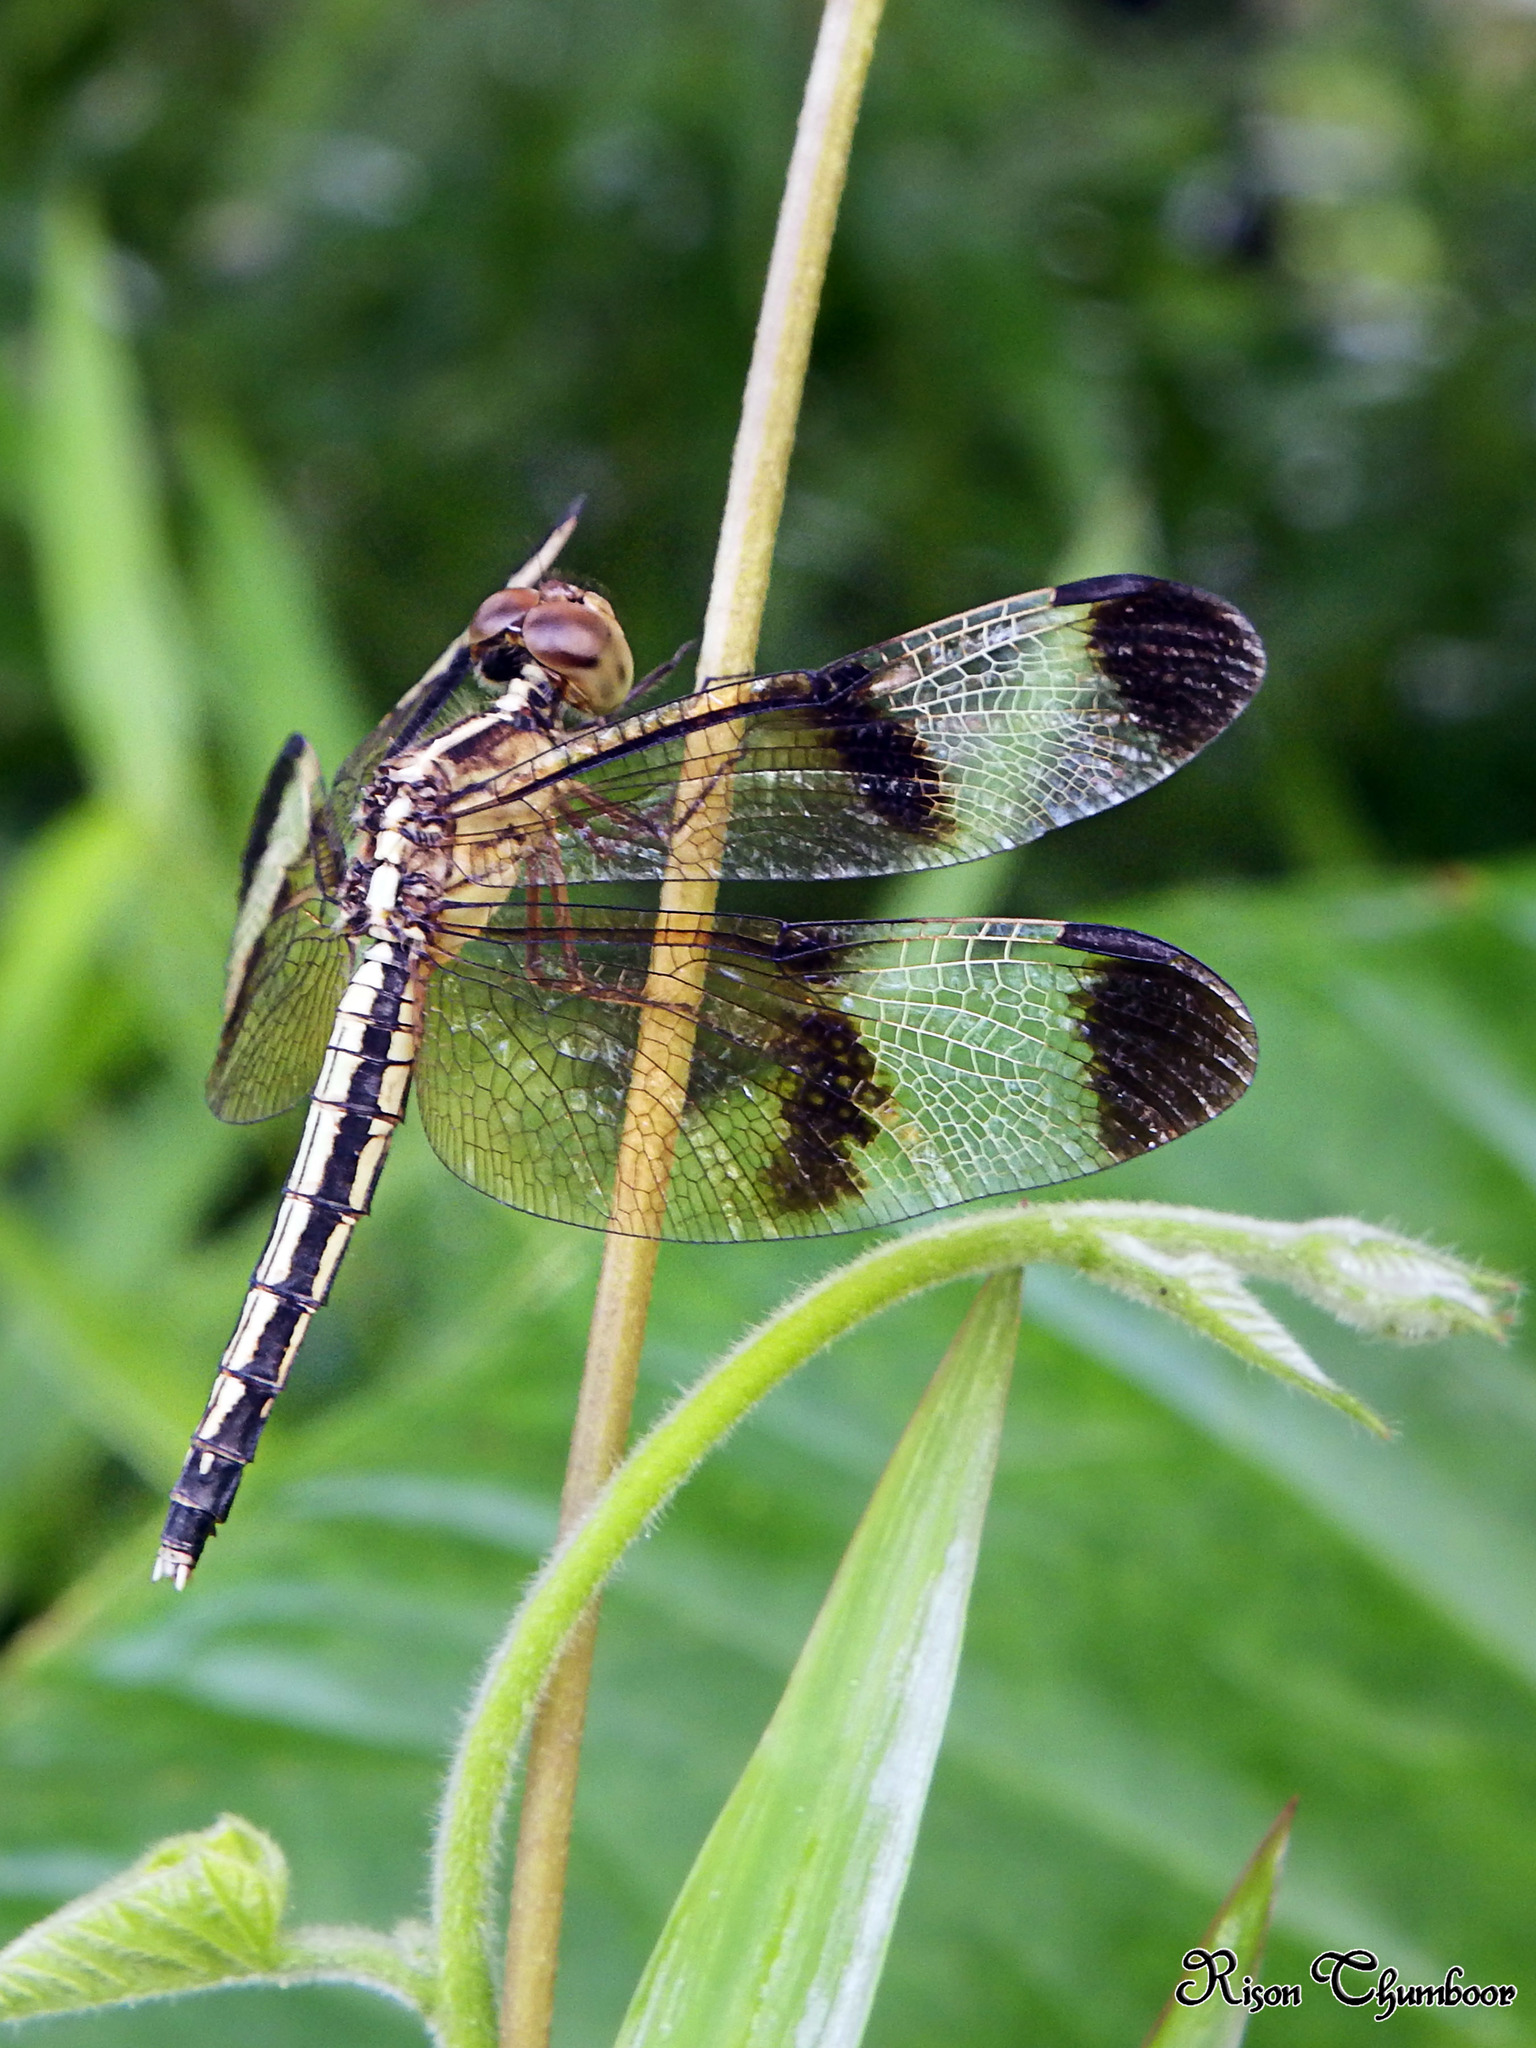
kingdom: Animalia
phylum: Arthropoda
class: Insecta
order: Odonata
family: Libellulidae
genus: Neurothemis
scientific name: Neurothemis tullia
